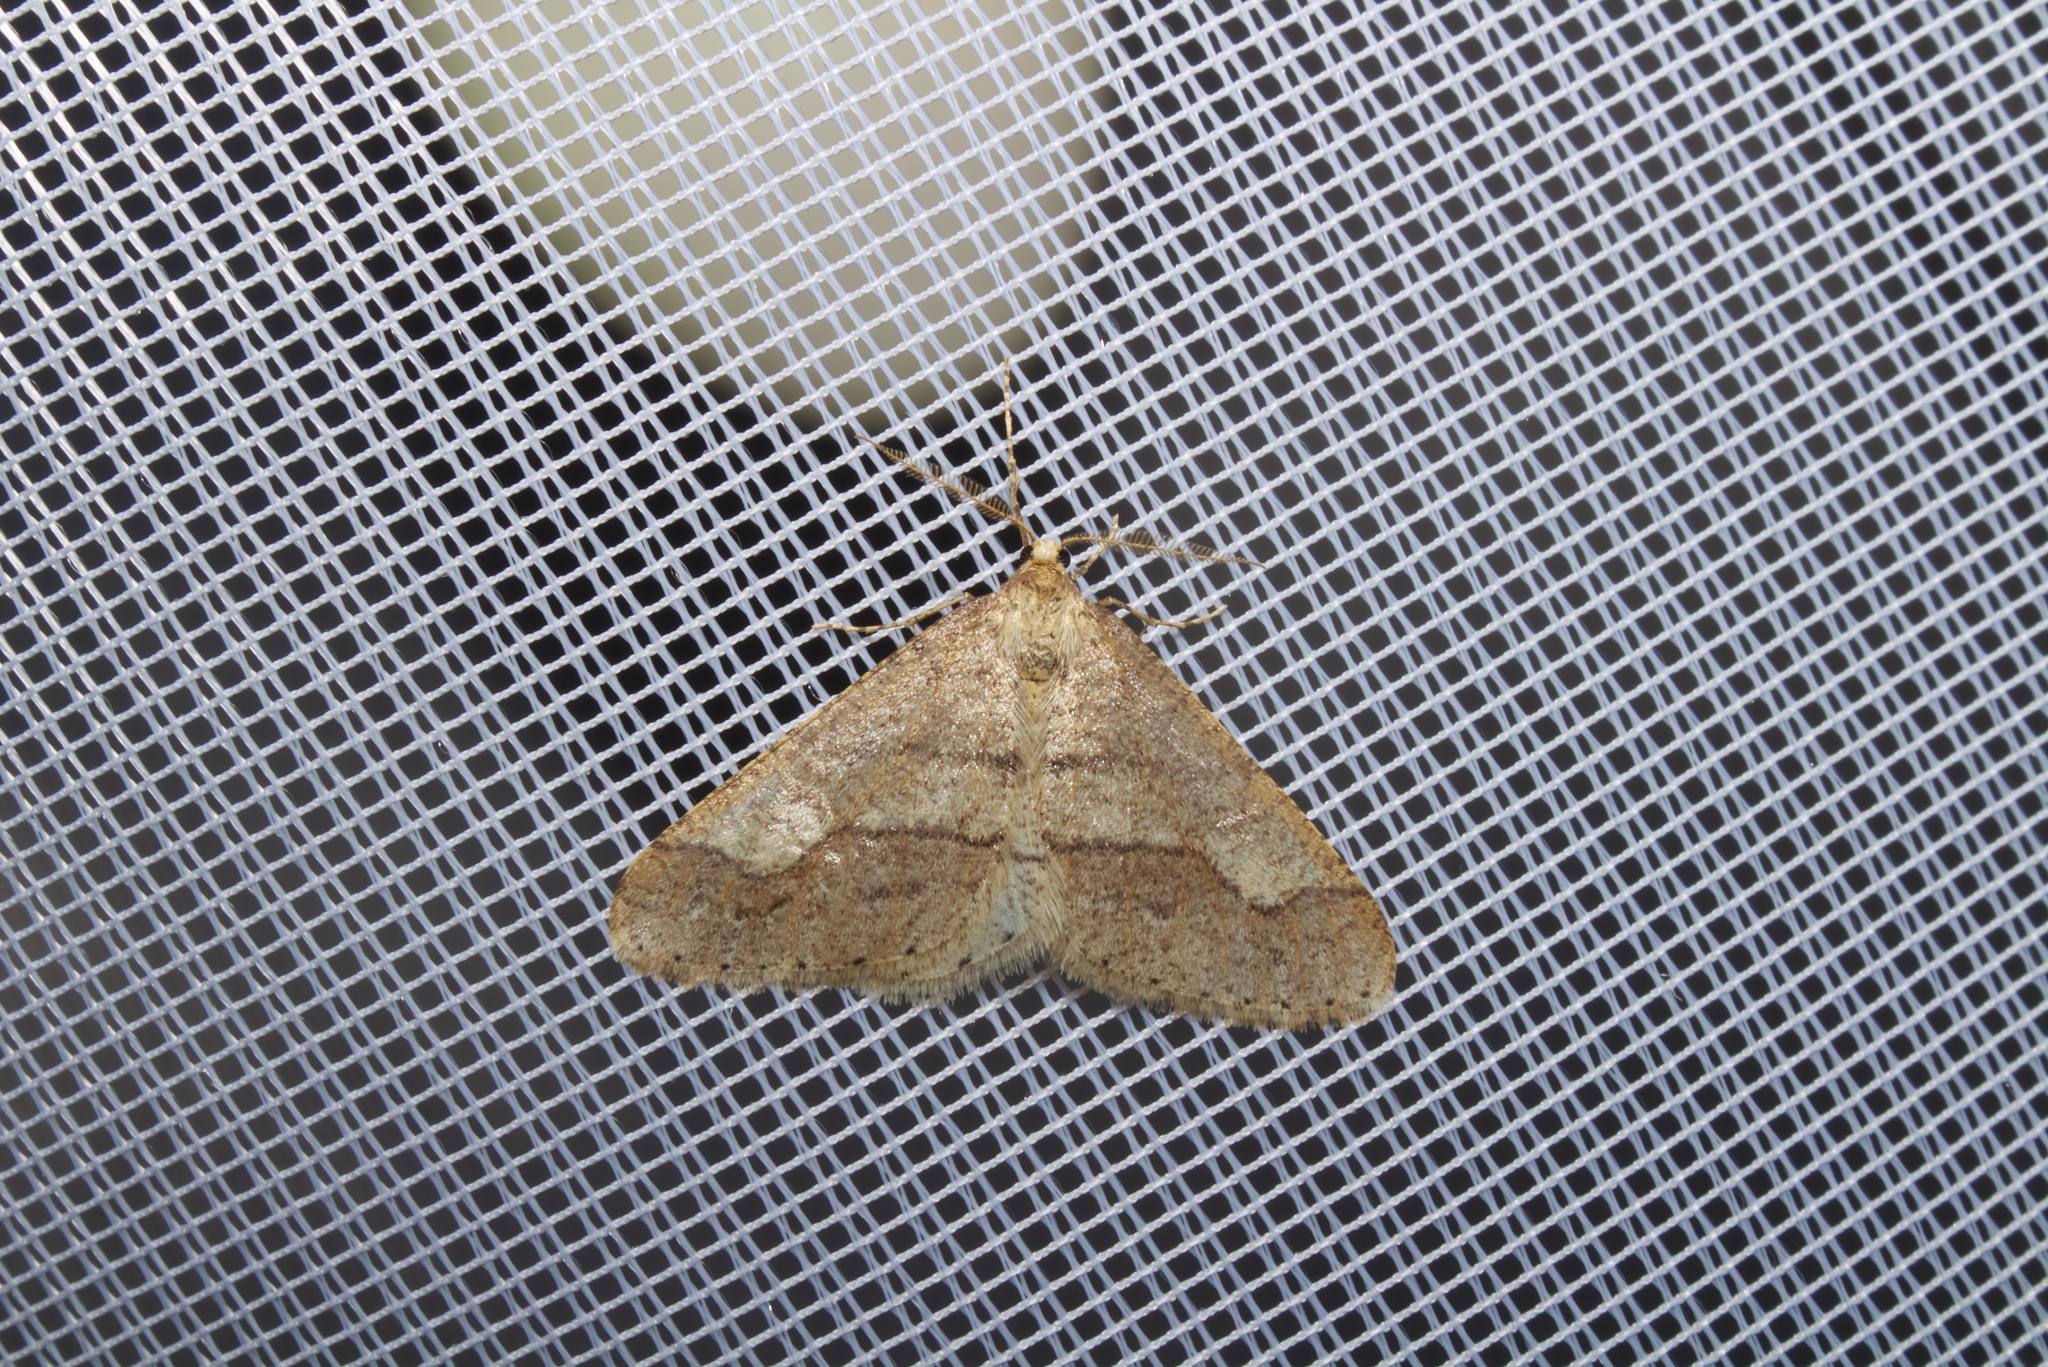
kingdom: Animalia
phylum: Arthropoda
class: Insecta
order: Lepidoptera
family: Geometridae
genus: Agriopis
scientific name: Agriopis marginaria
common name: Dotted border
